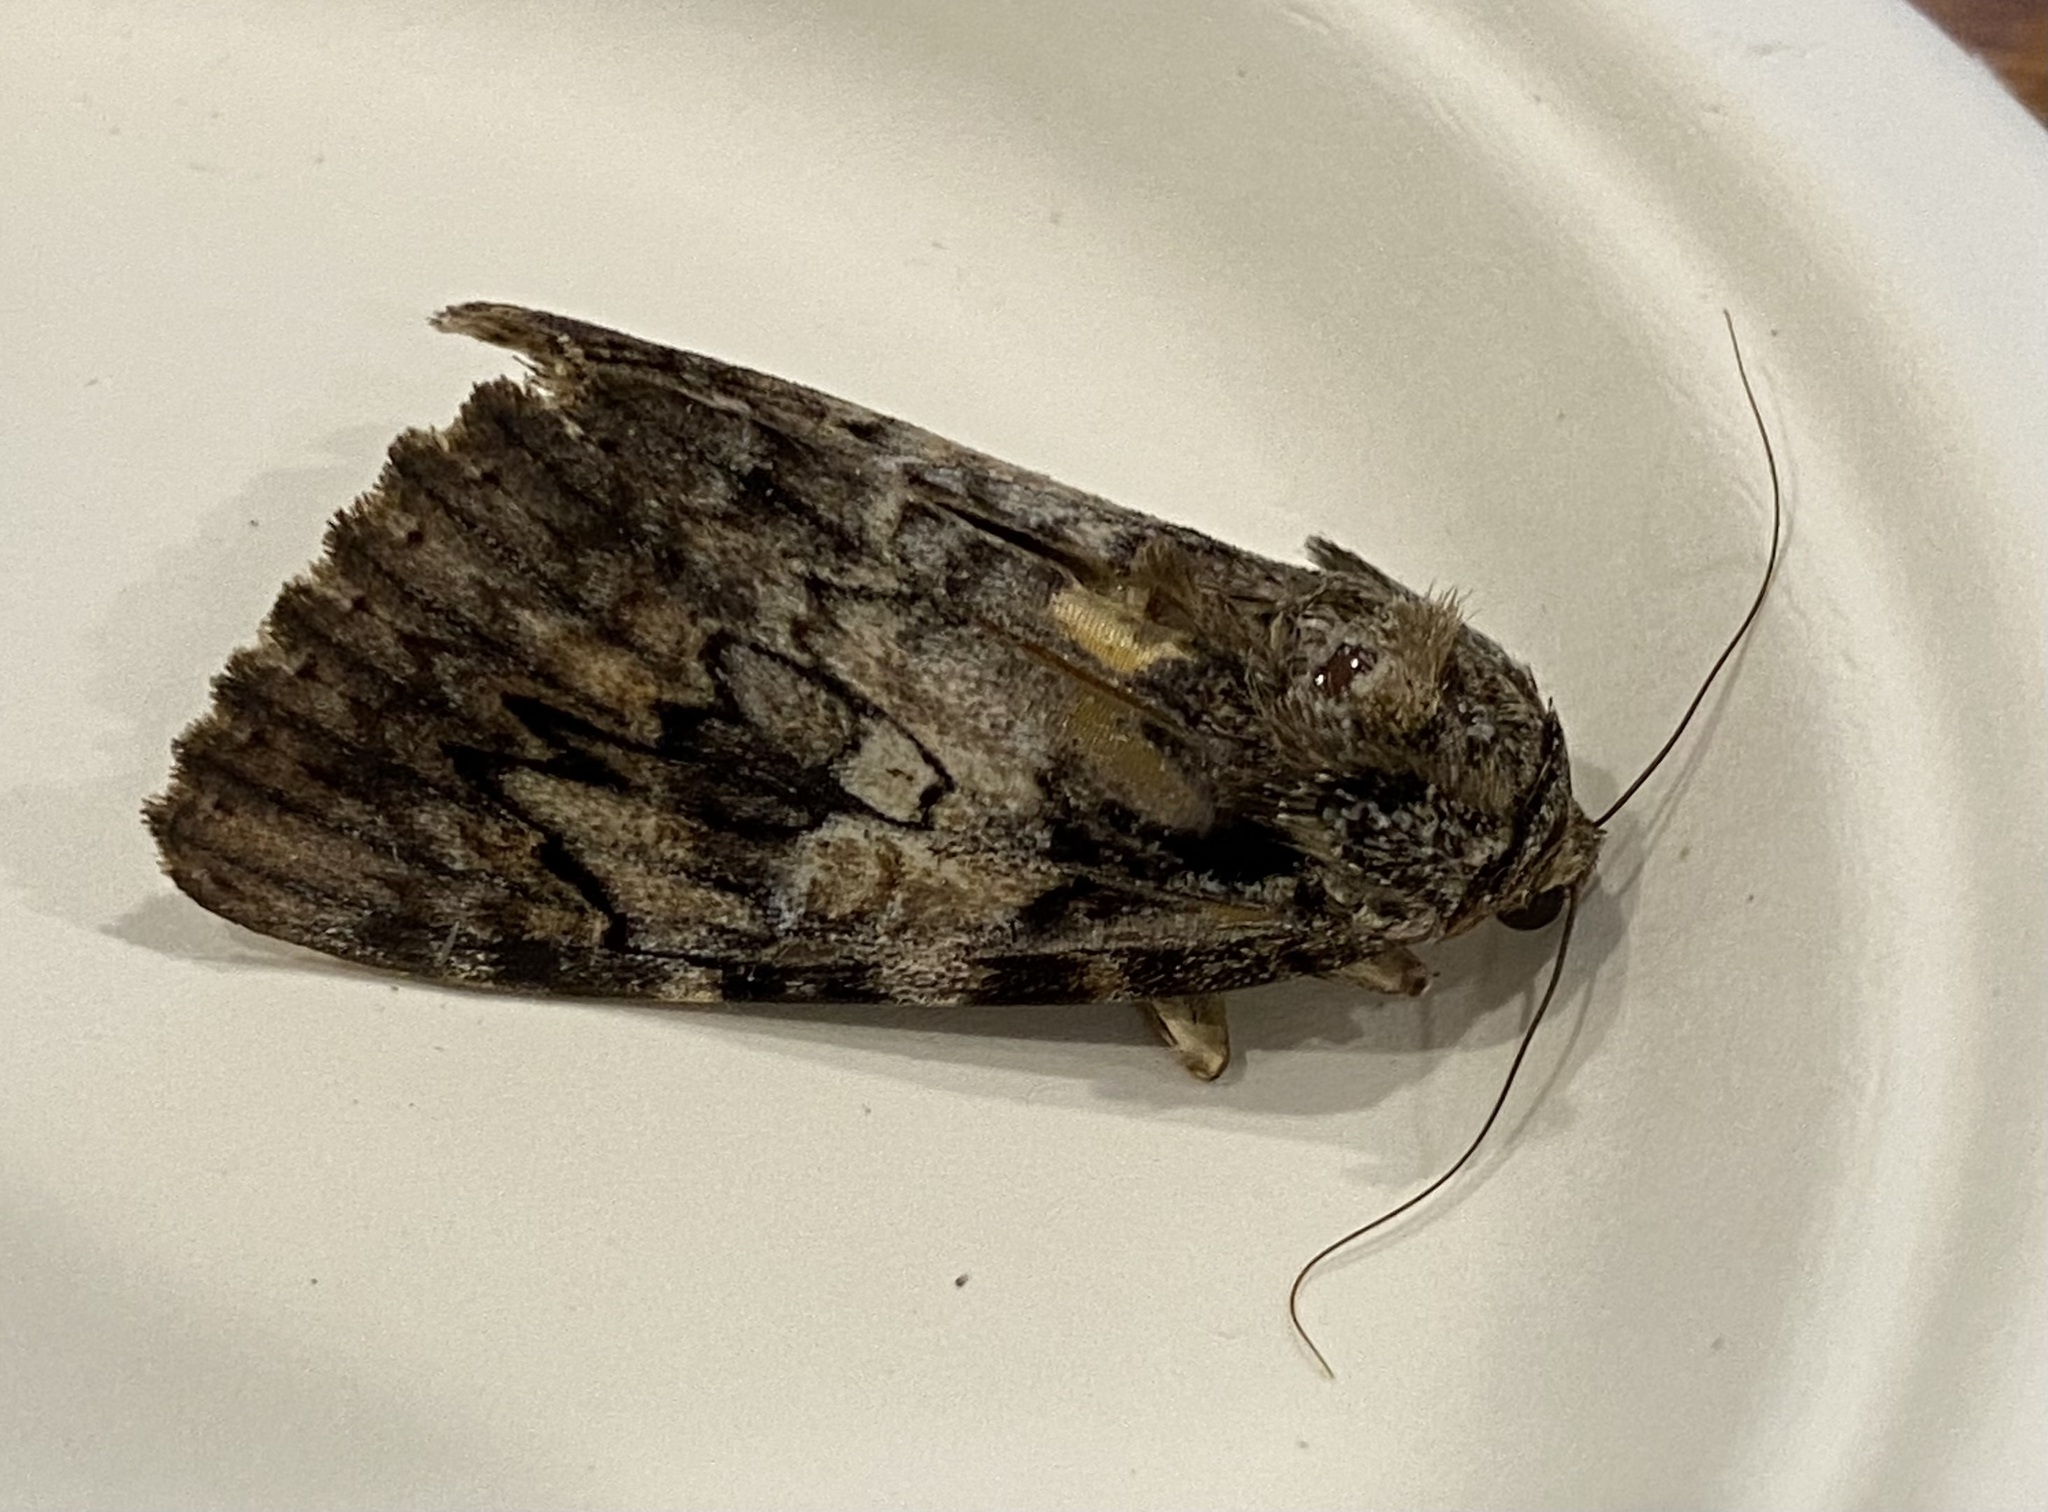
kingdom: Animalia
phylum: Arthropoda
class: Insecta
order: Lepidoptera
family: Erebidae
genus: Catocala
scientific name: Catocala ilia
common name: Ilia underwing
